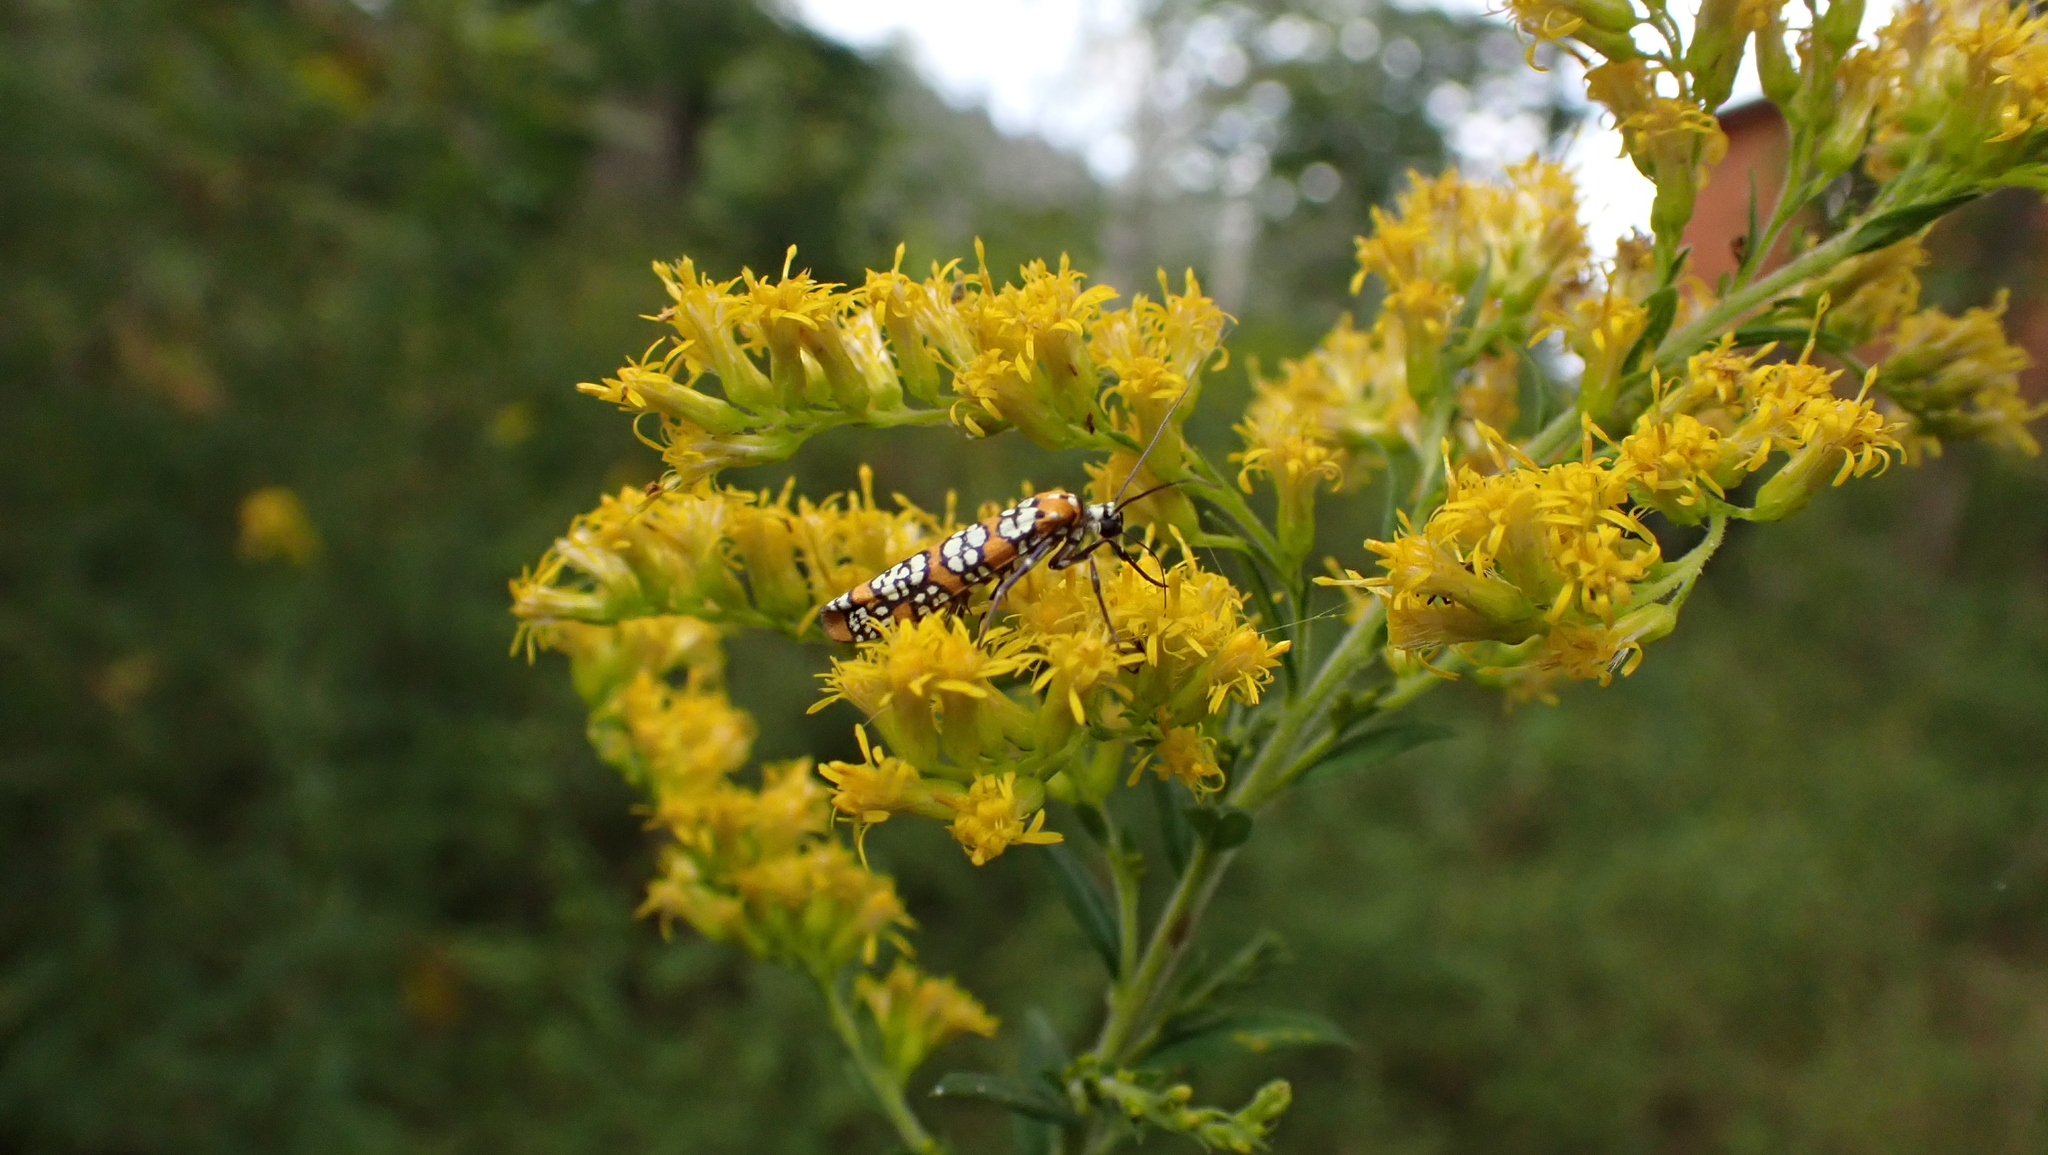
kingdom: Animalia
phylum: Arthropoda
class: Insecta
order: Lepidoptera
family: Attevidae
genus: Atteva
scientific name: Atteva punctella
